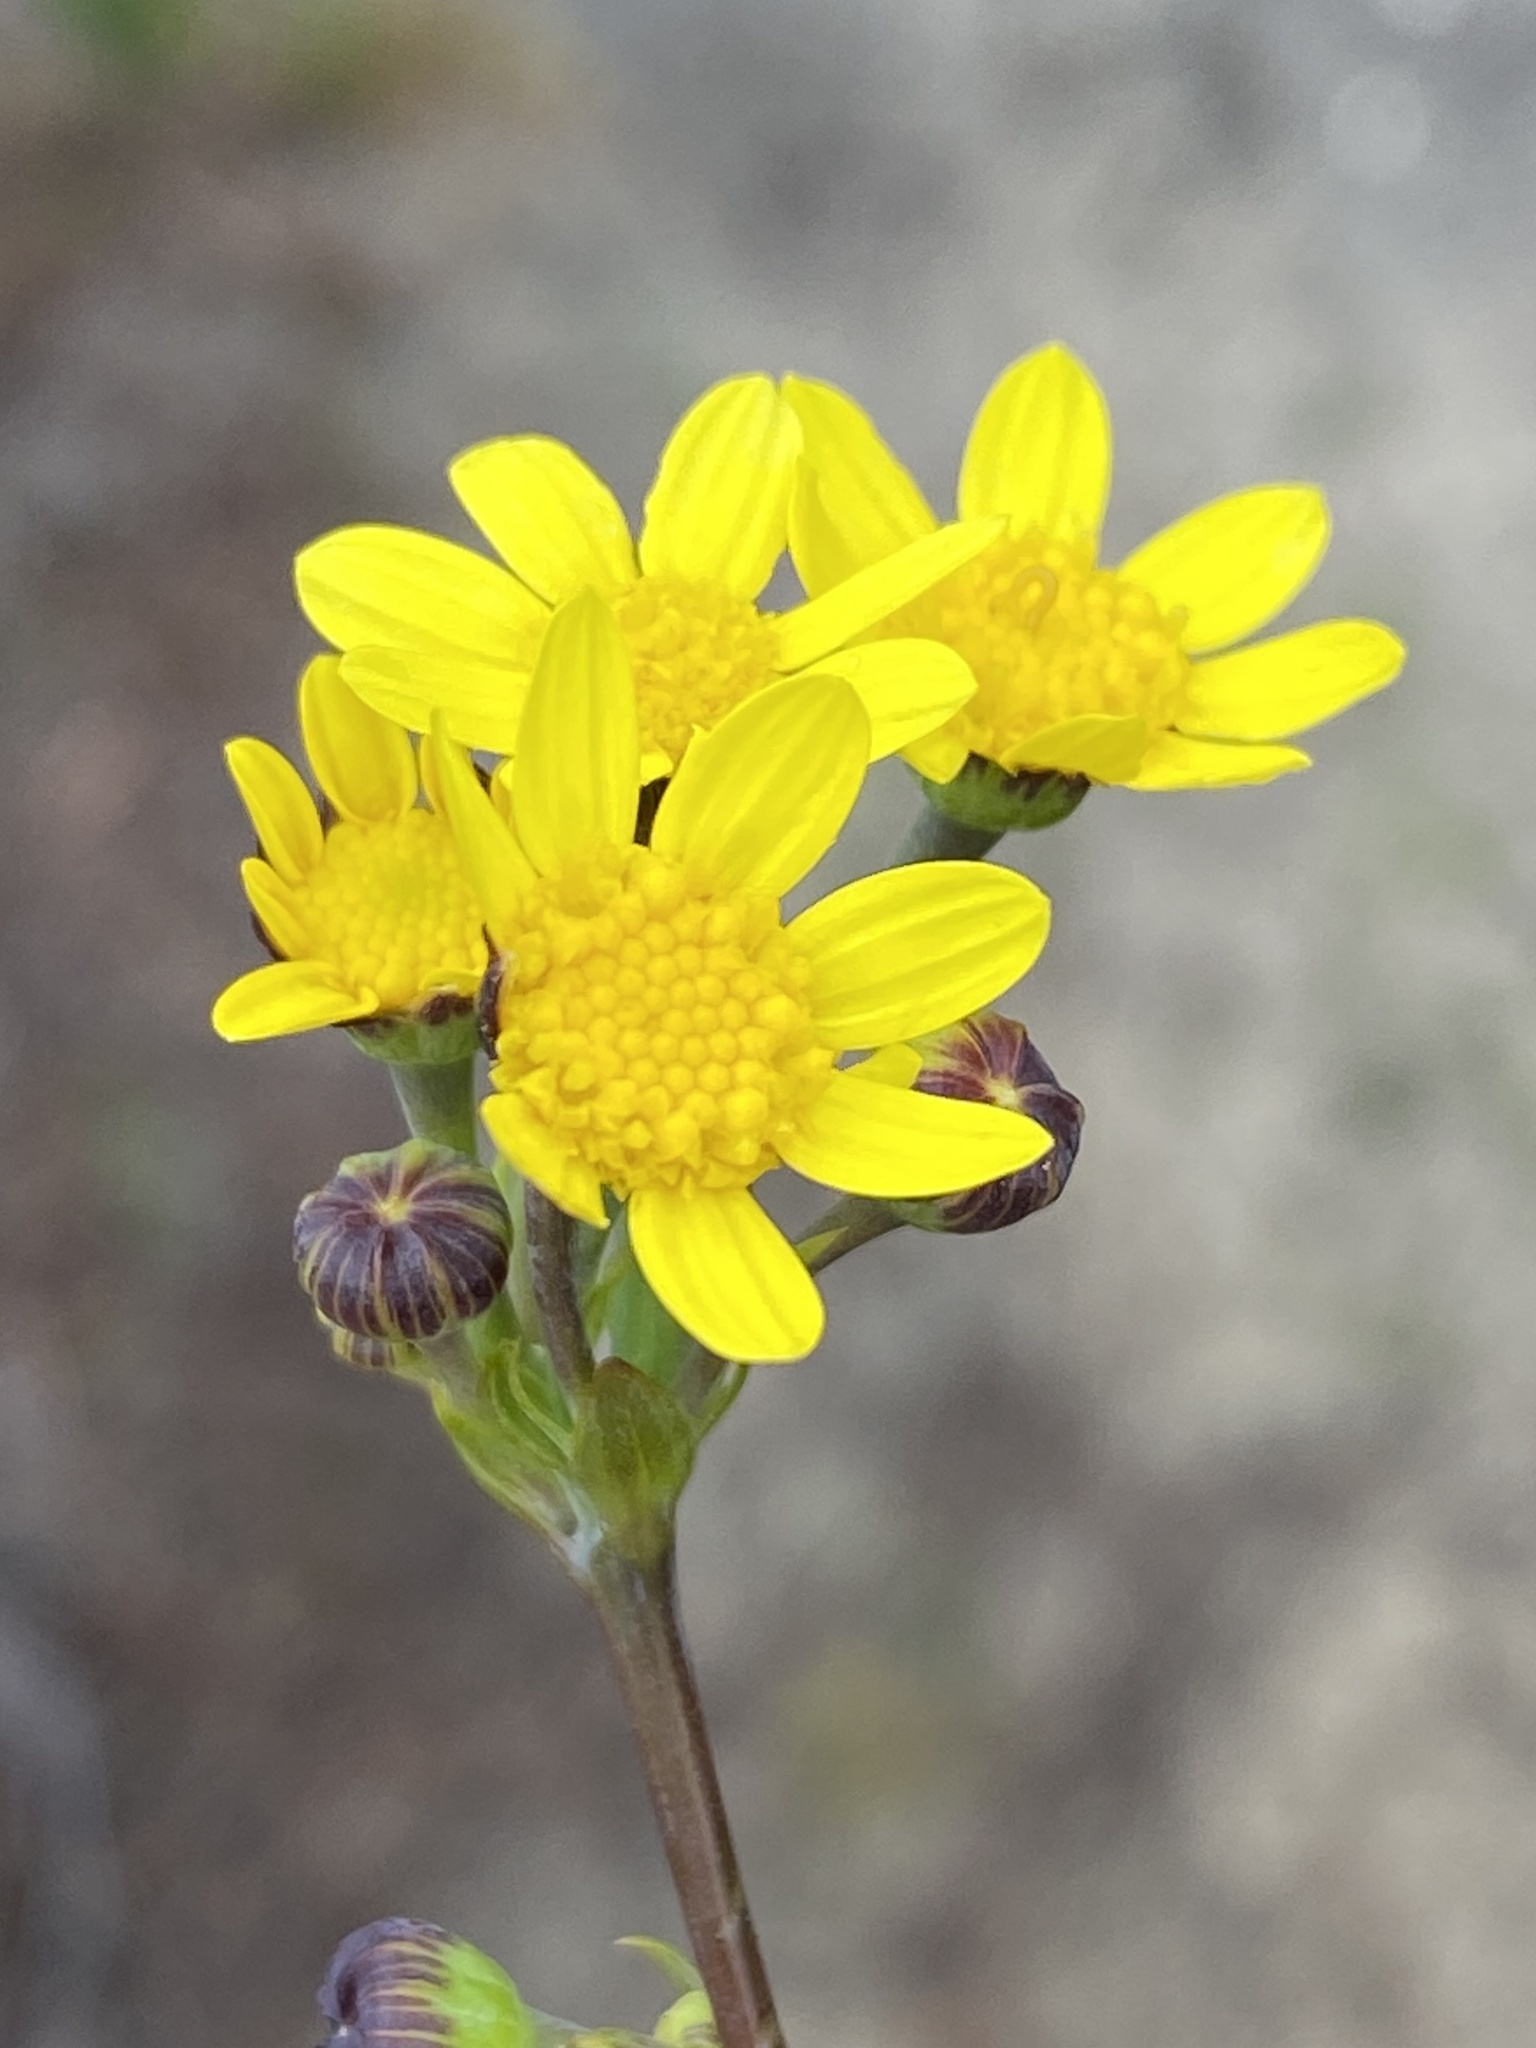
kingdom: Plantae
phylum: Tracheophyta
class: Magnoliopsida
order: Asterales
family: Asteraceae
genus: Othonna
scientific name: Othonna quinquedentata
